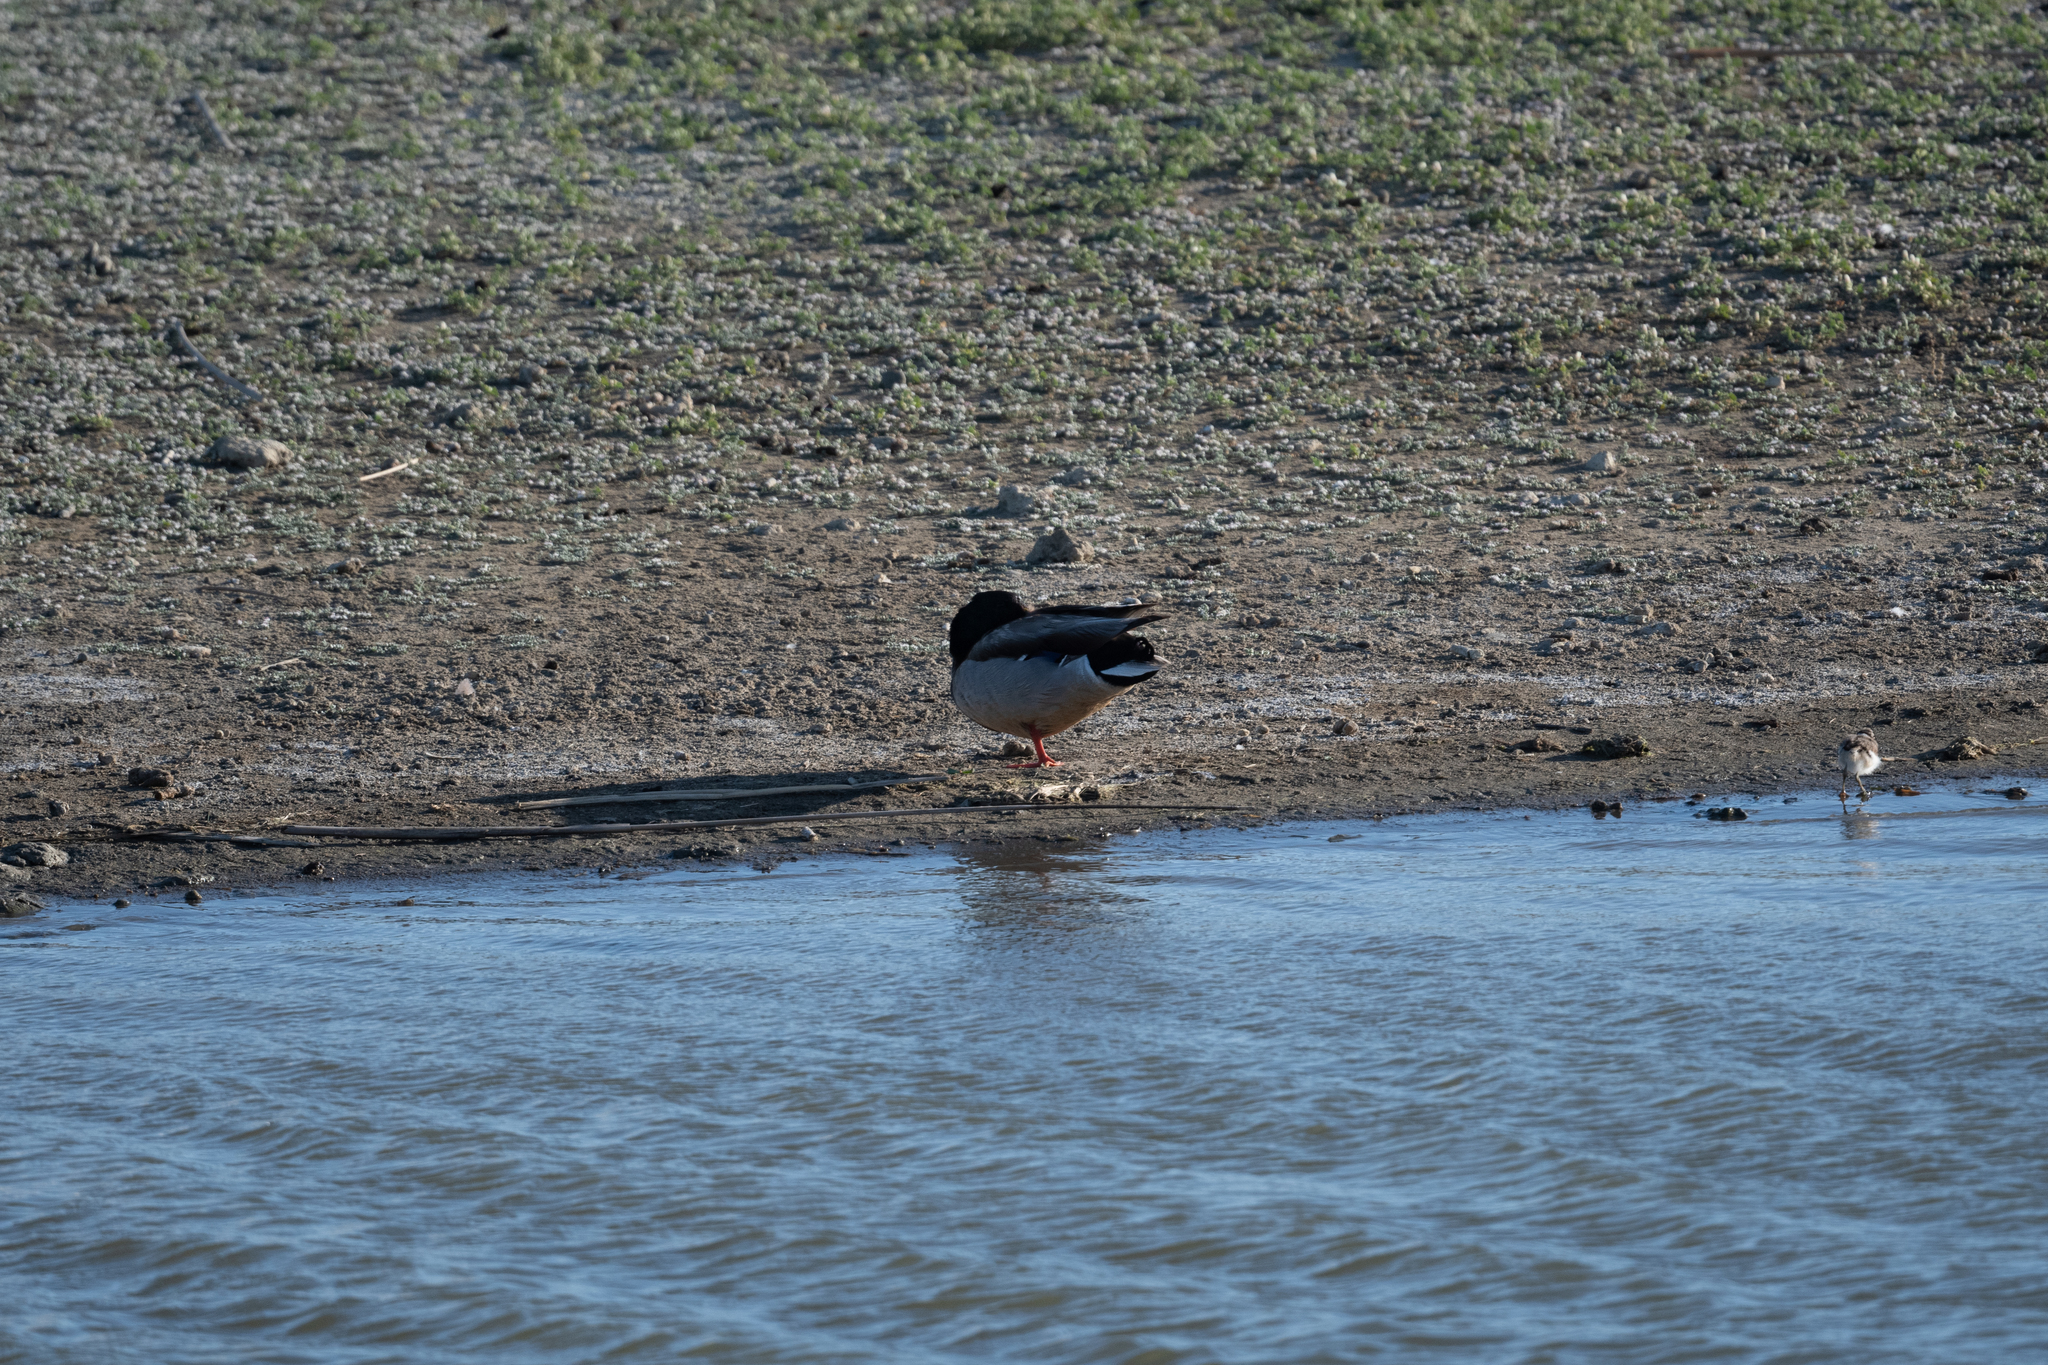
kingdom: Animalia
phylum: Chordata
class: Aves
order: Anseriformes
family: Anatidae
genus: Anas
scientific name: Anas platyrhynchos
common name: Mallard
